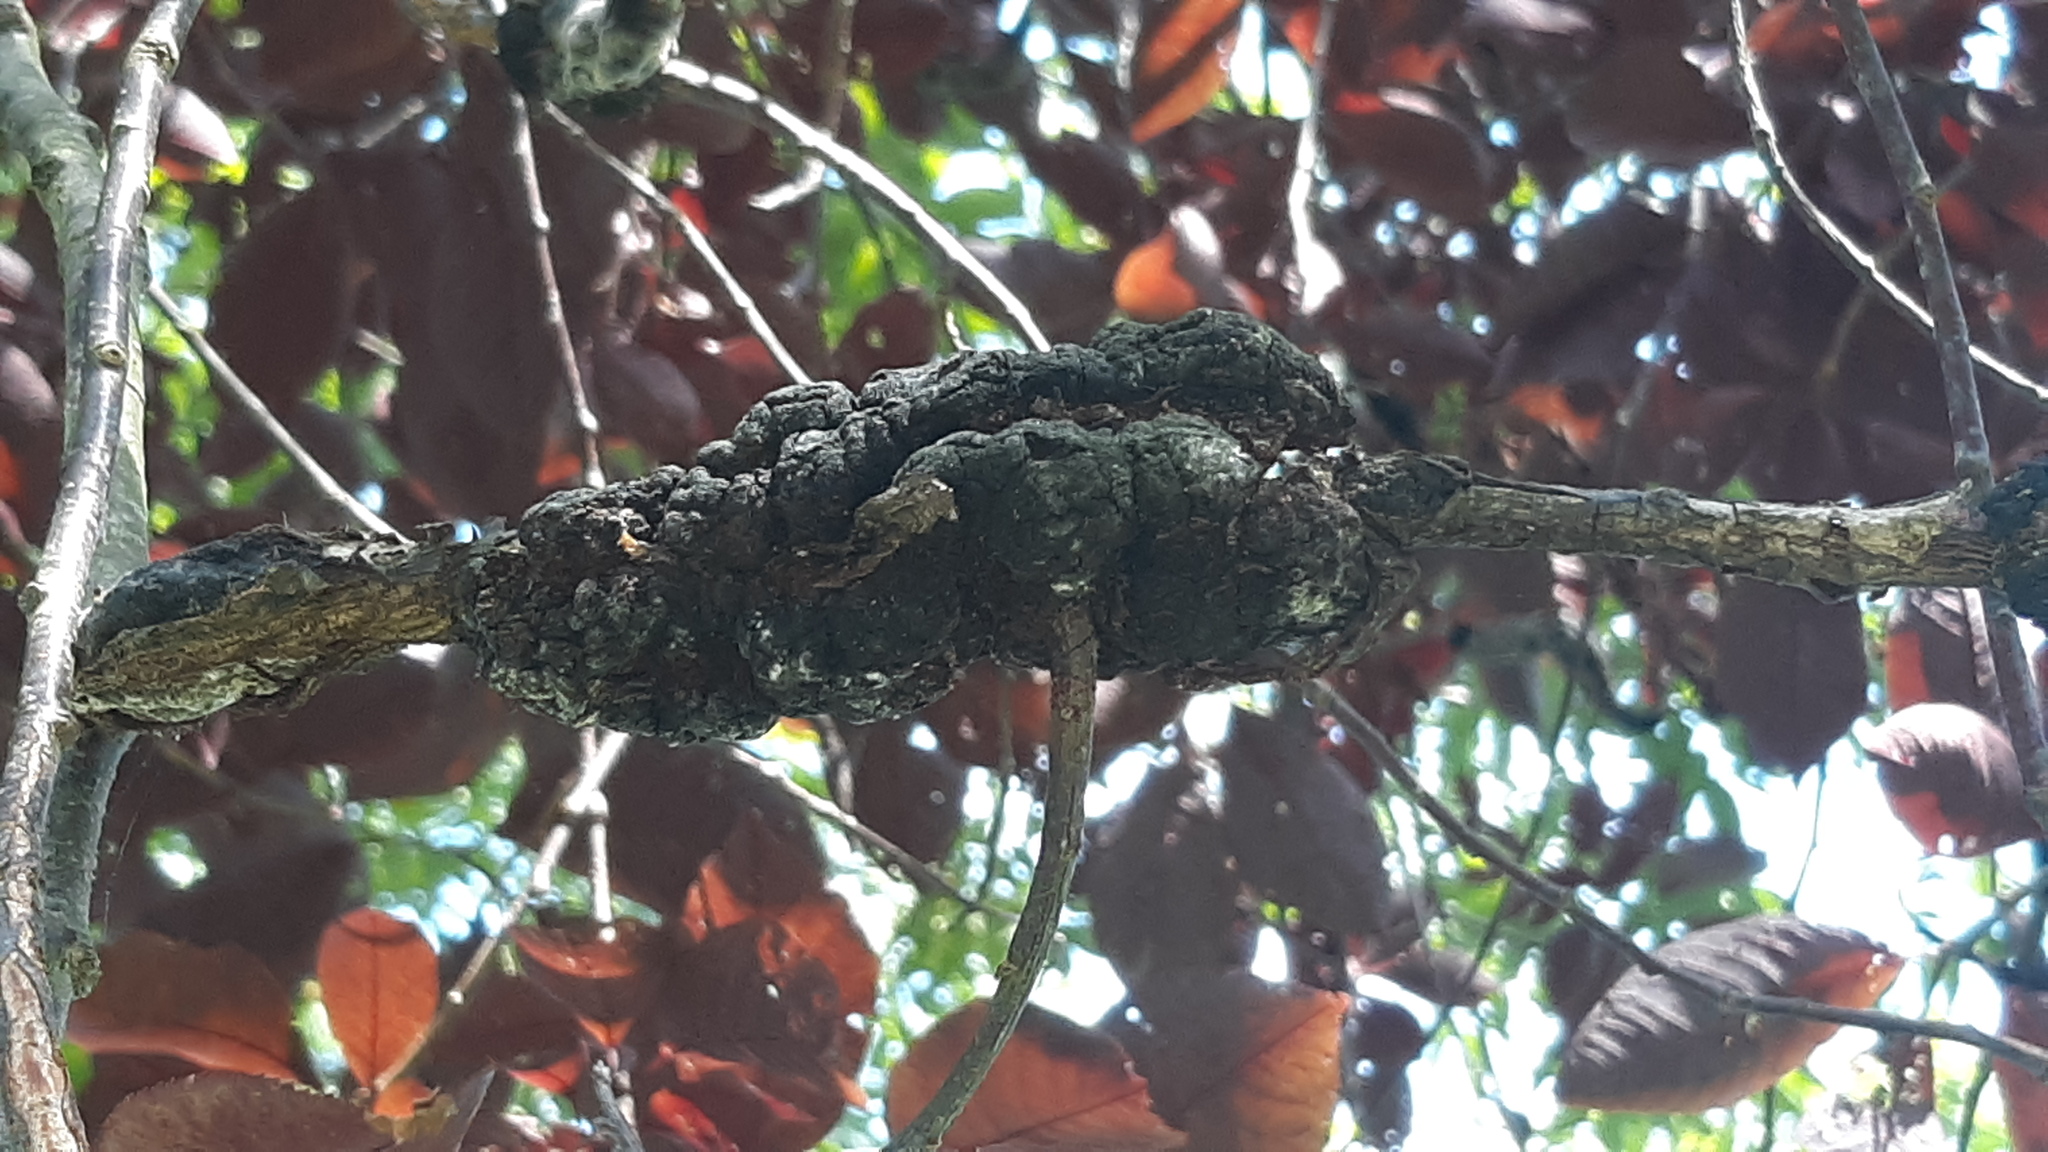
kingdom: Fungi
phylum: Ascomycota
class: Dothideomycetes
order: Venturiales
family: Venturiaceae
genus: Apiosporina
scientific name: Apiosporina morbosa
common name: Black knot
